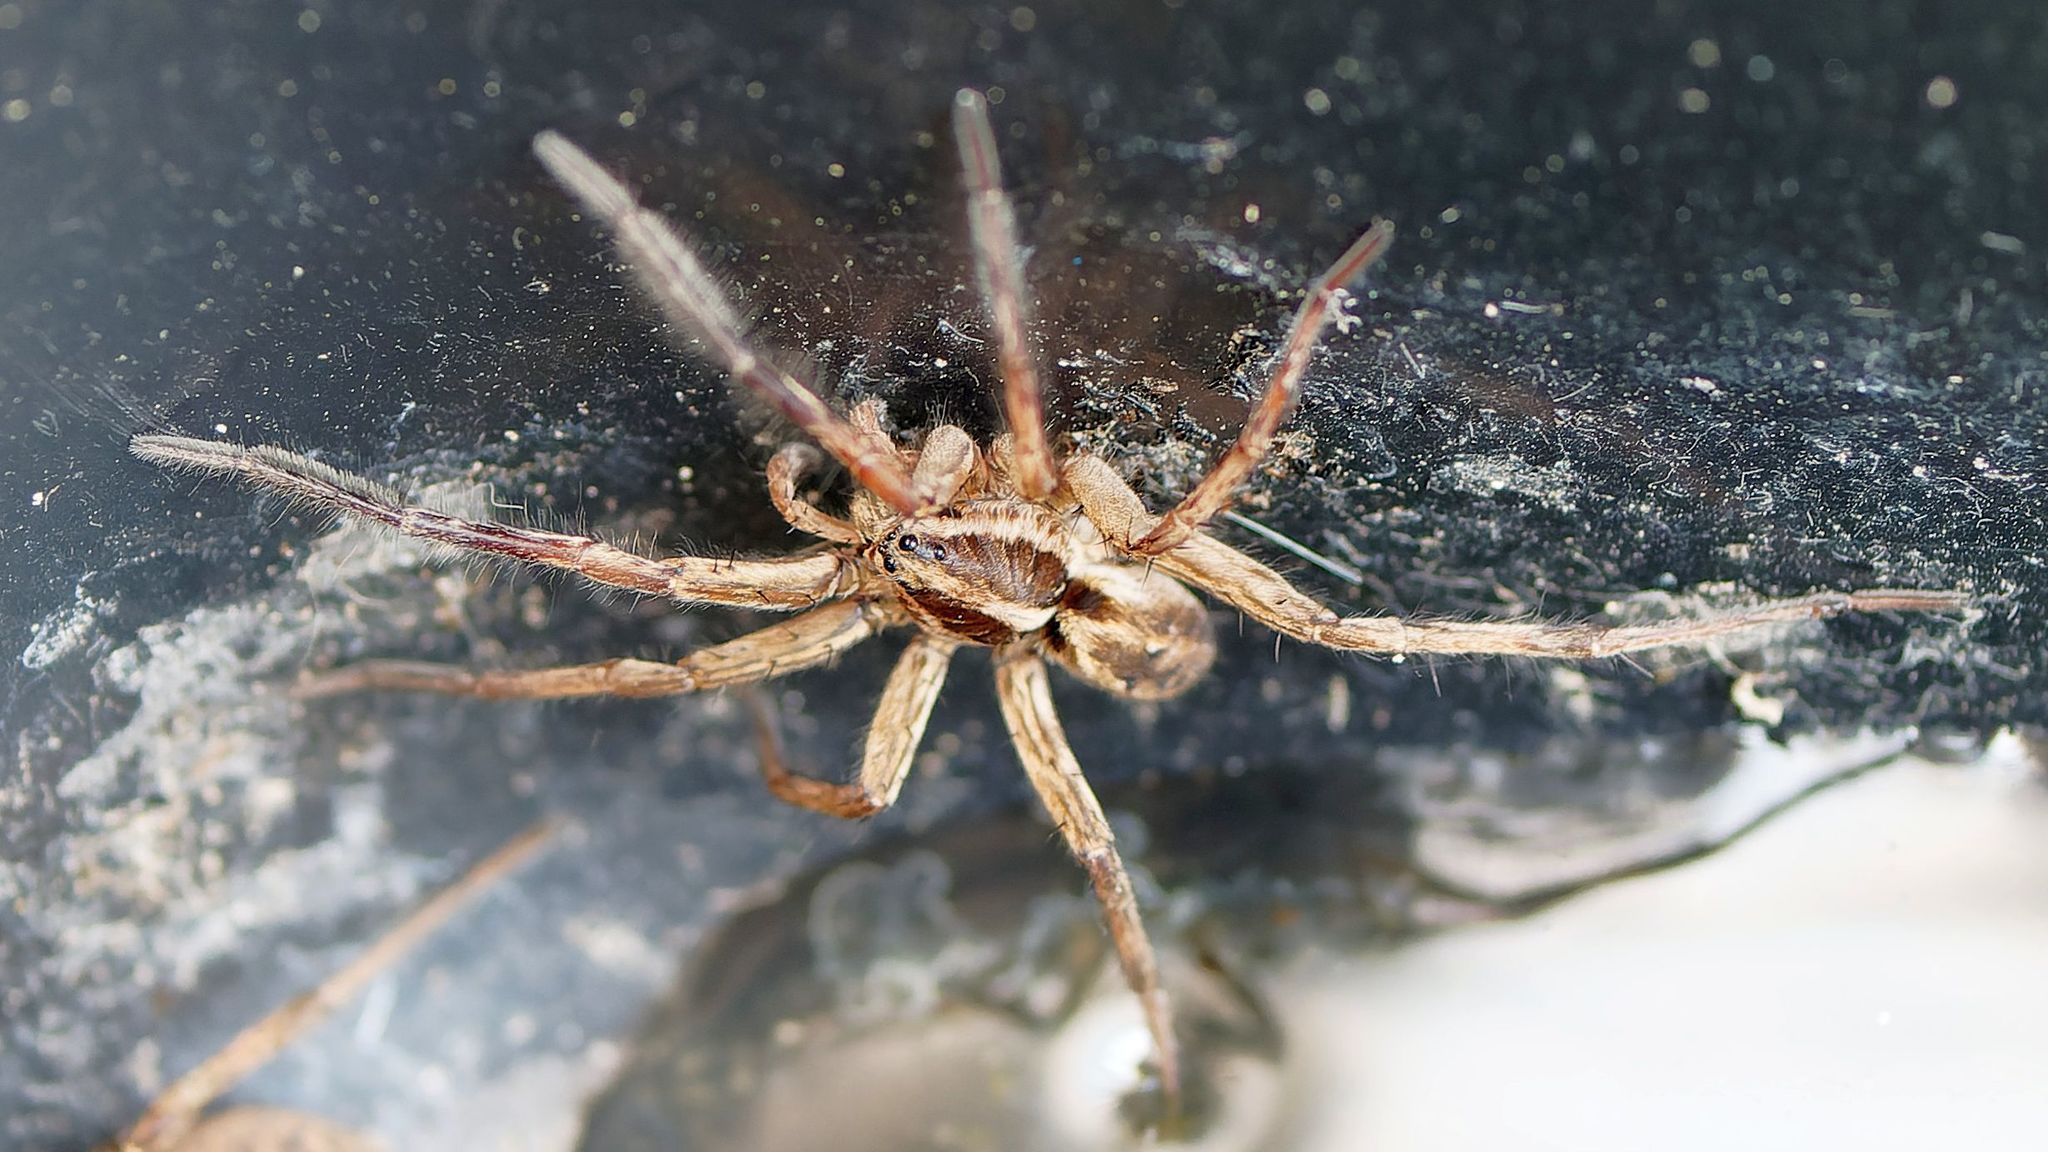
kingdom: Animalia
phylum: Arthropoda
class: Arachnida
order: Araneae
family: Lycosidae
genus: Hogna
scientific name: Hogna radiata
